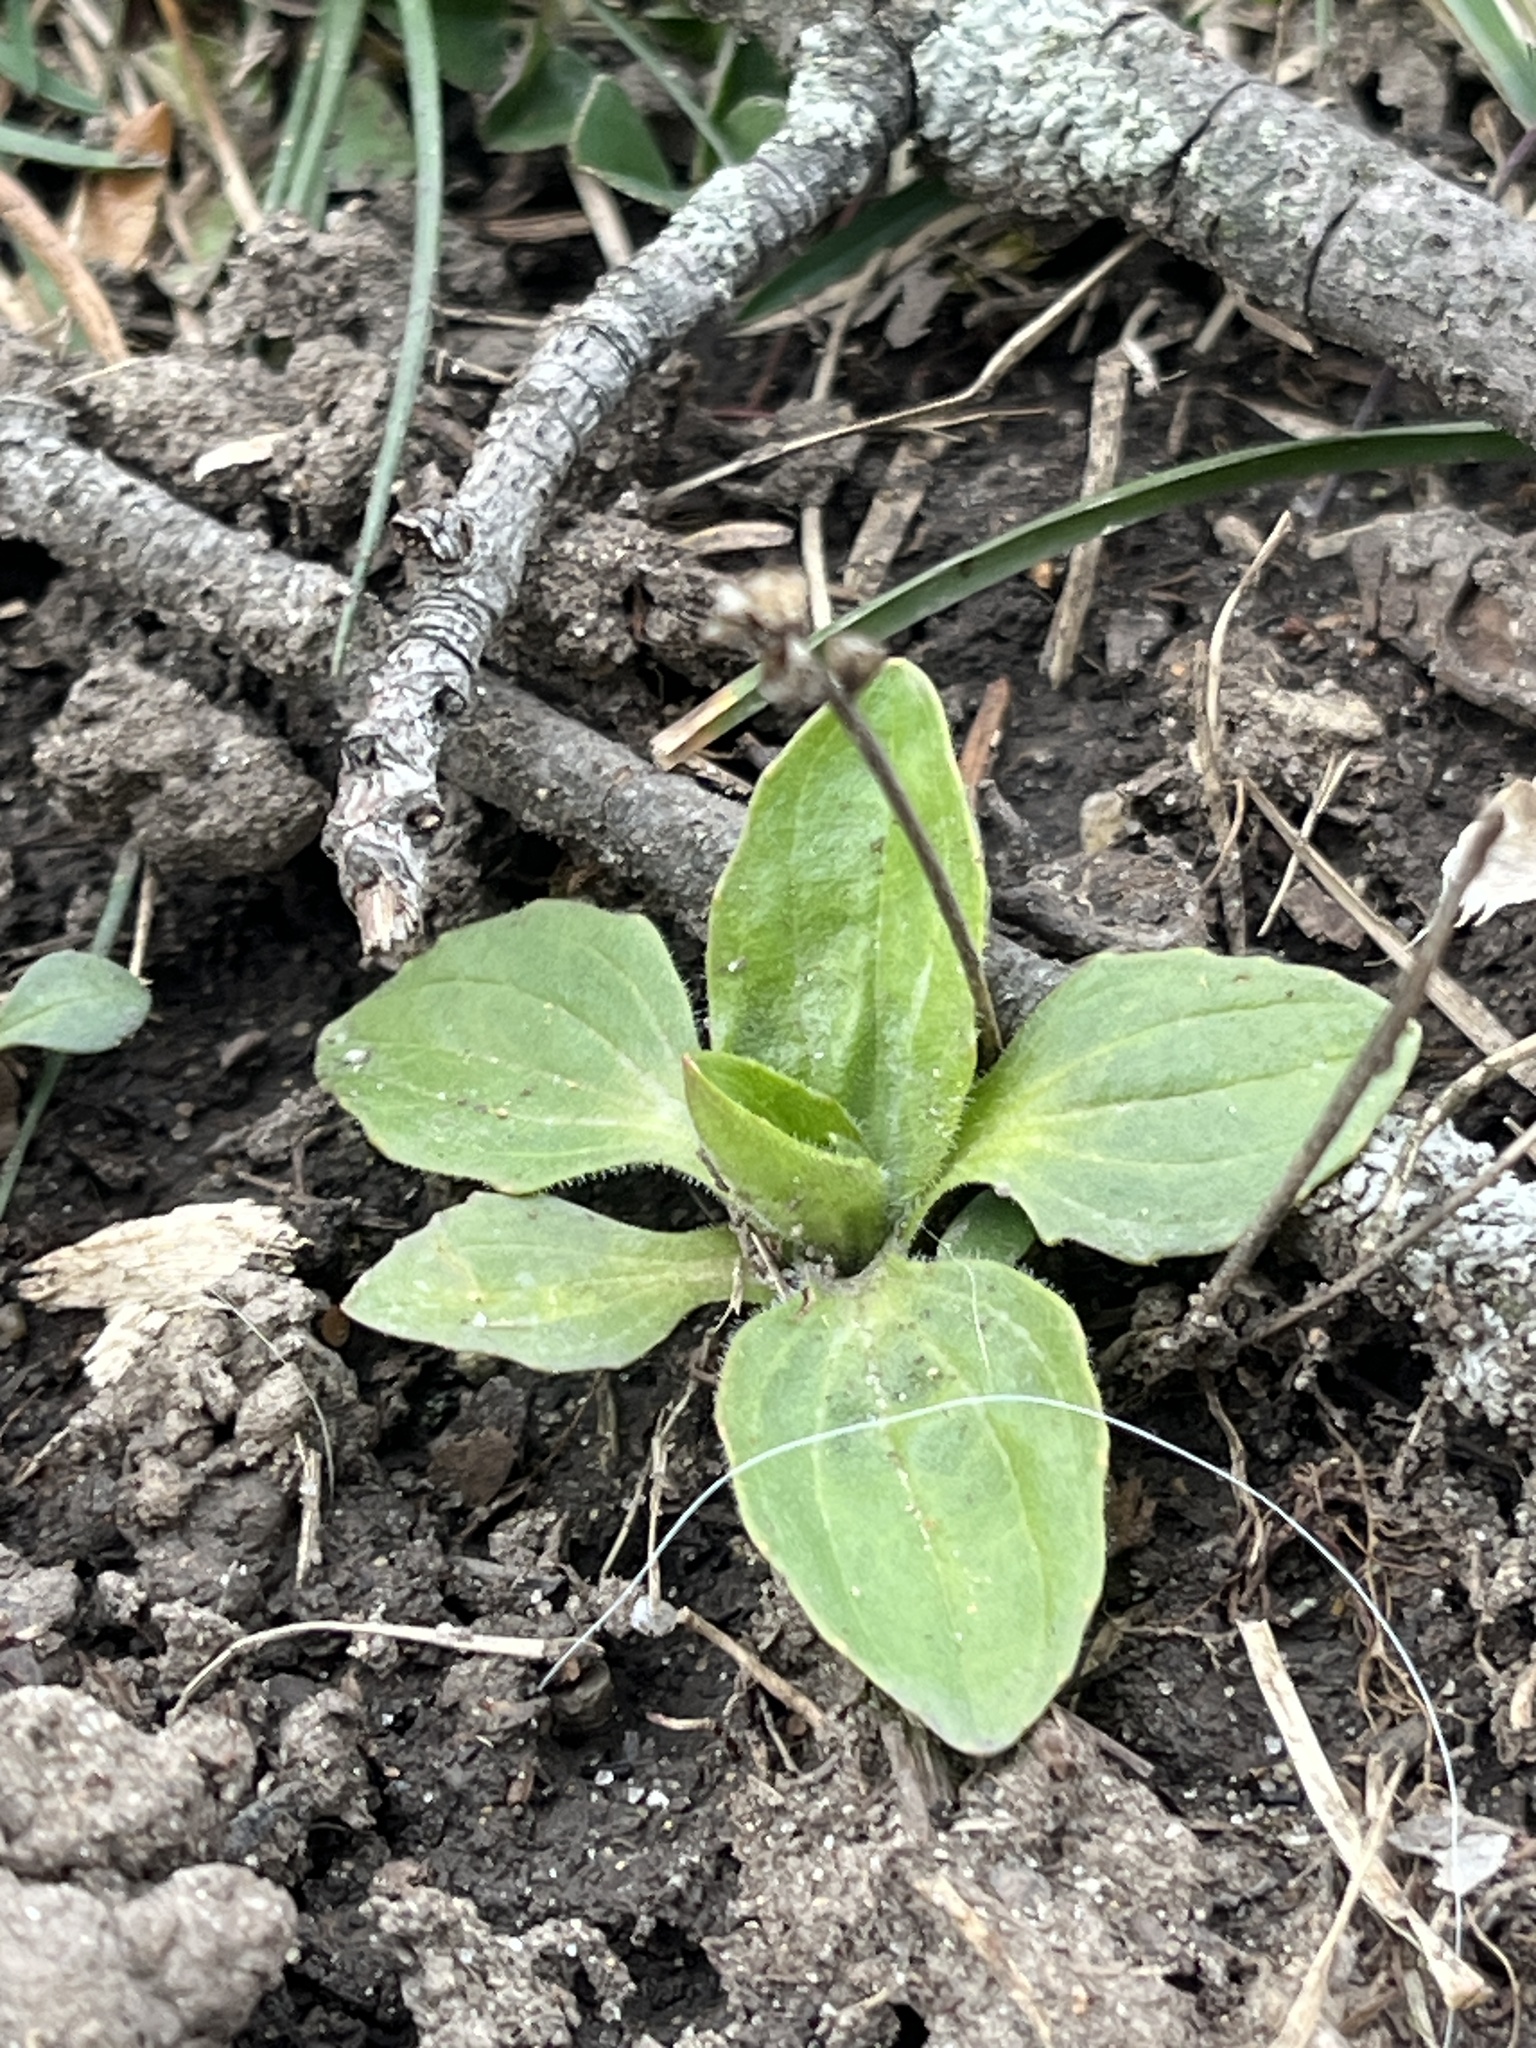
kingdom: Plantae
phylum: Tracheophyta
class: Magnoliopsida
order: Lamiales
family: Plantaginaceae
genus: Plantago
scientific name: Plantago major
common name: Common plantain
